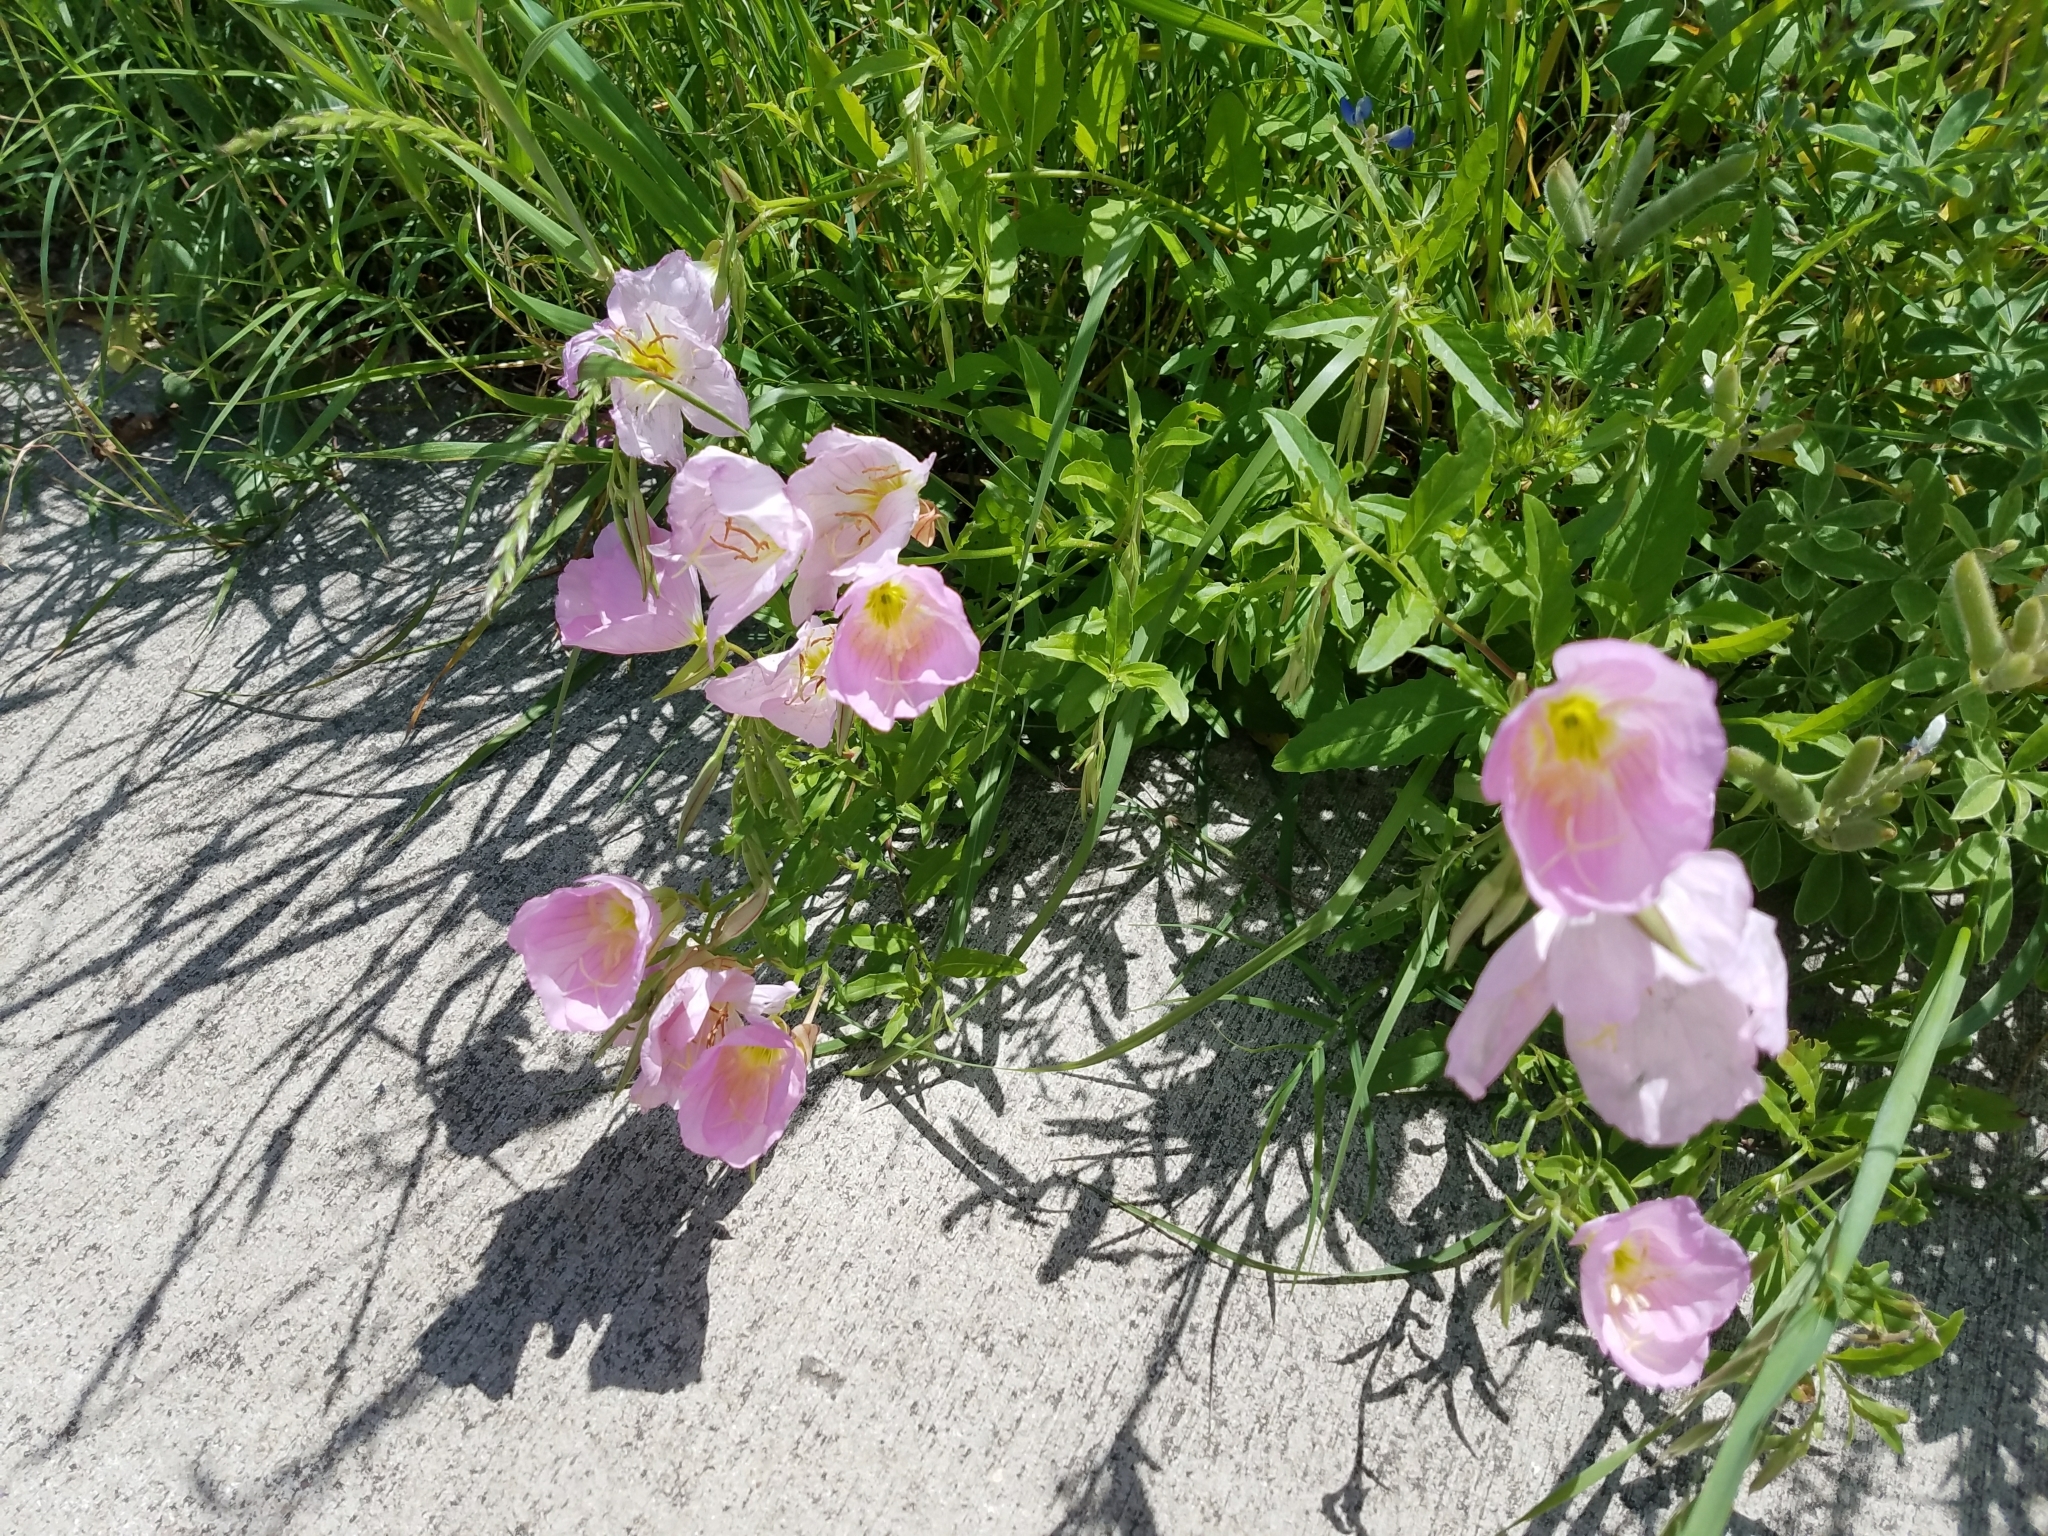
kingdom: Plantae
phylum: Tracheophyta
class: Magnoliopsida
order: Myrtales
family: Onagraceae
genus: Oenothera
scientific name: Oenothera speciosa
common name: White evening-primrose
